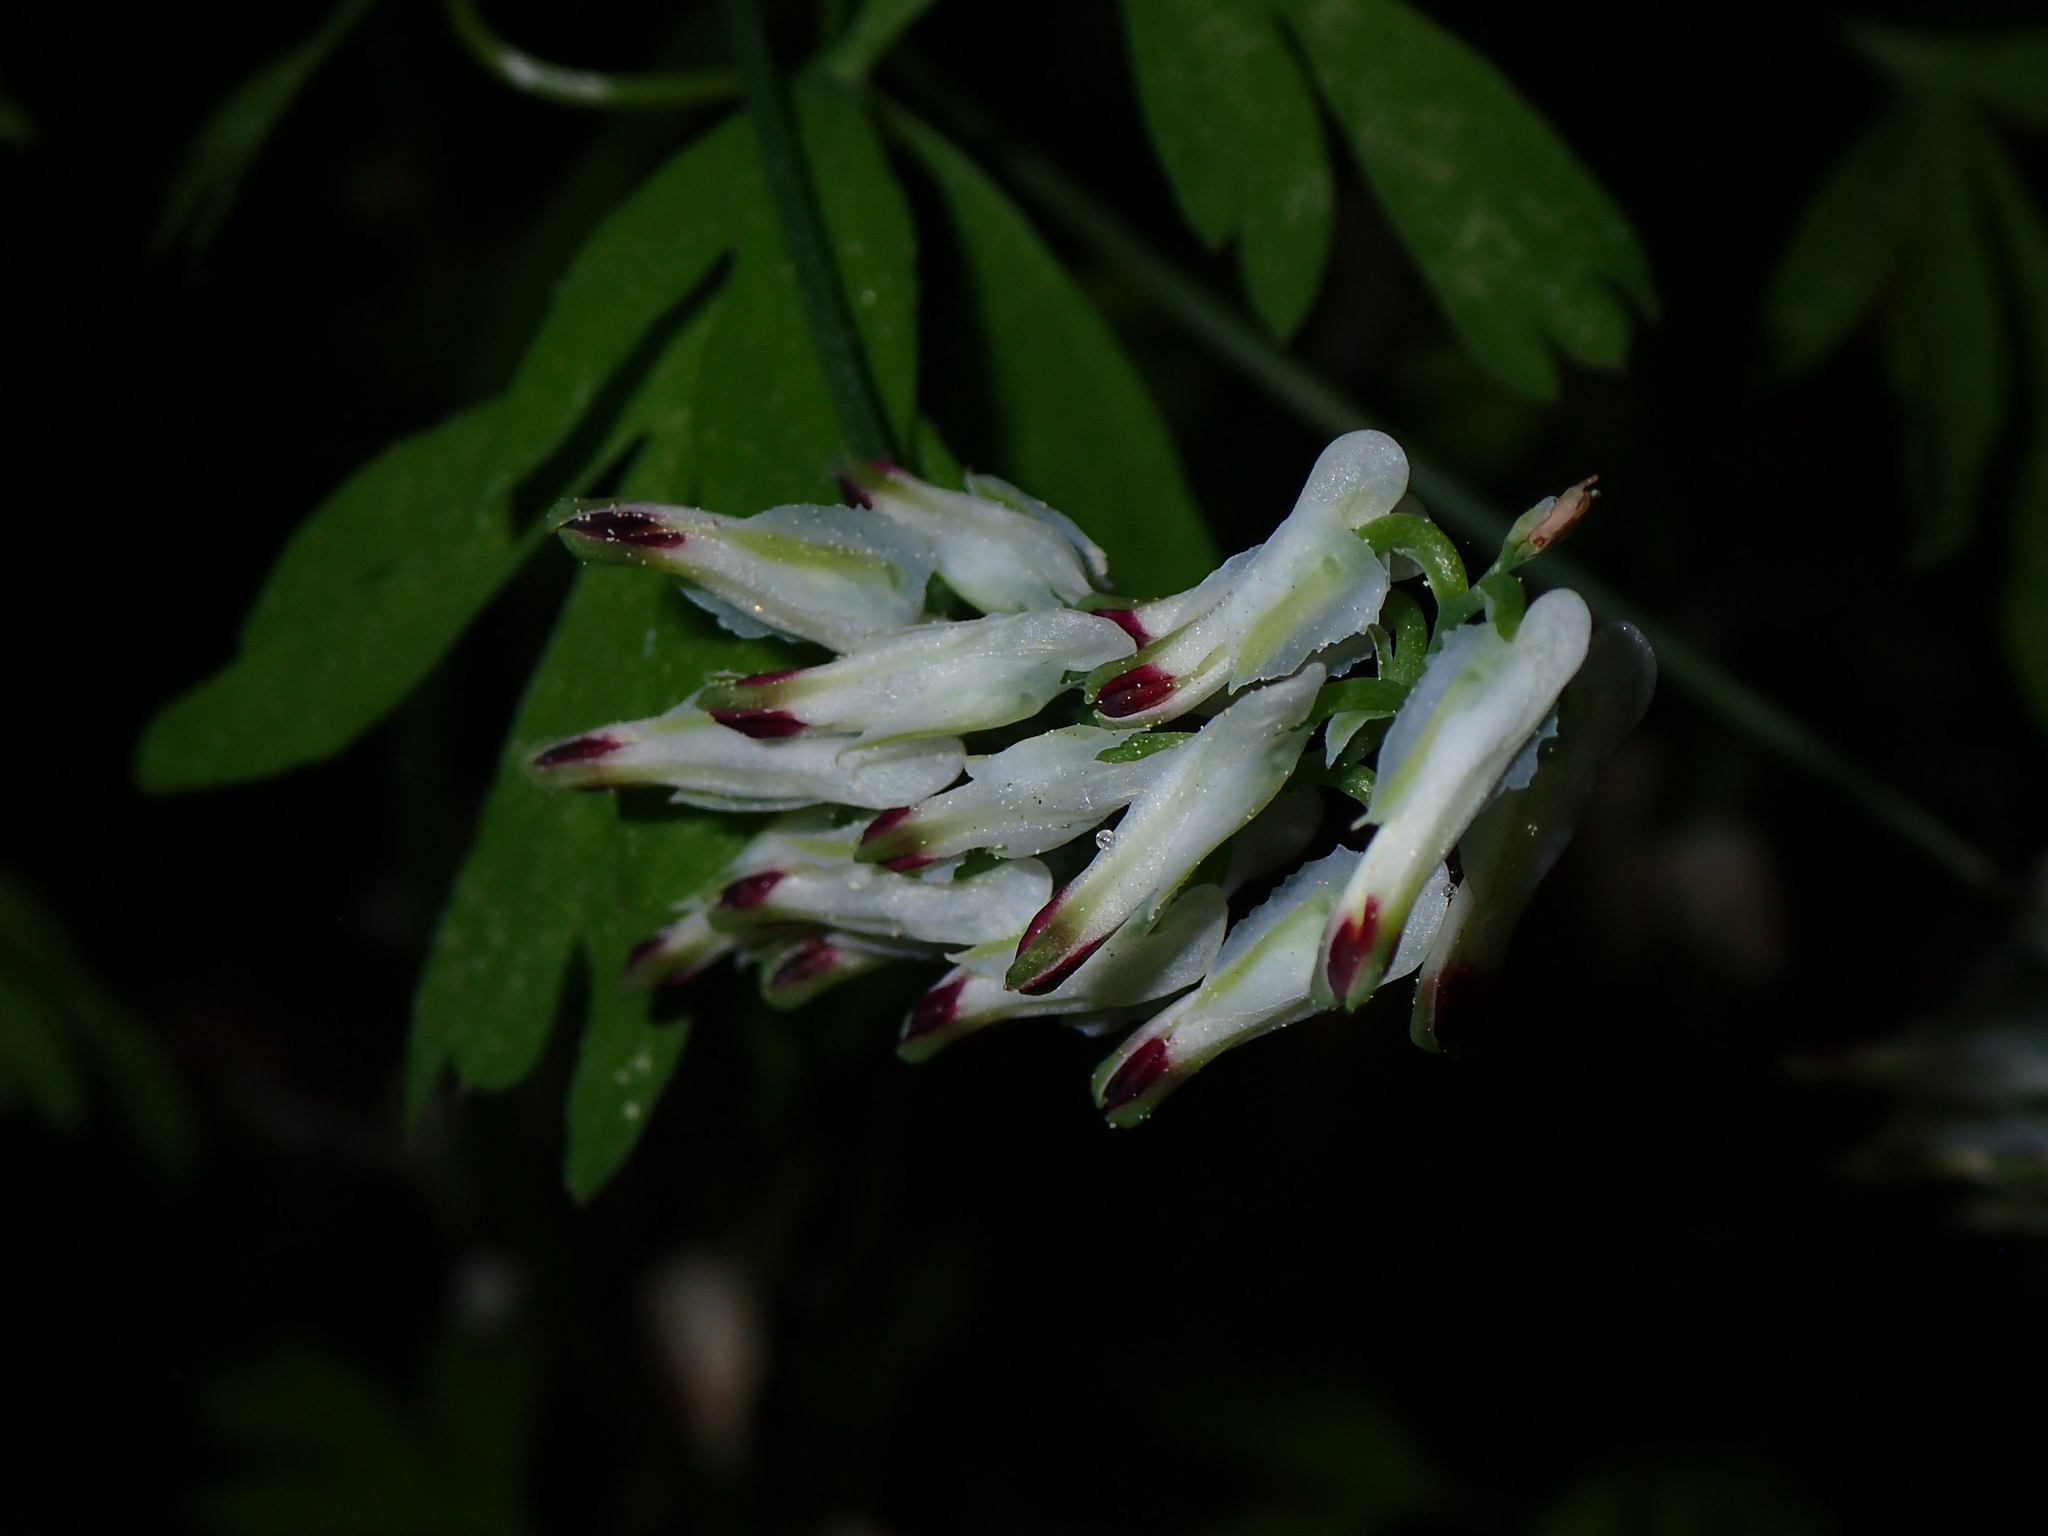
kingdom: Plantae
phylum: Tracheophyta
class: Magnoliopsida
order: Ranunculales
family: Papaveraceae
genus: Fumaria
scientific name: Fumaria capreolata
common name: White ramping-fumitory
